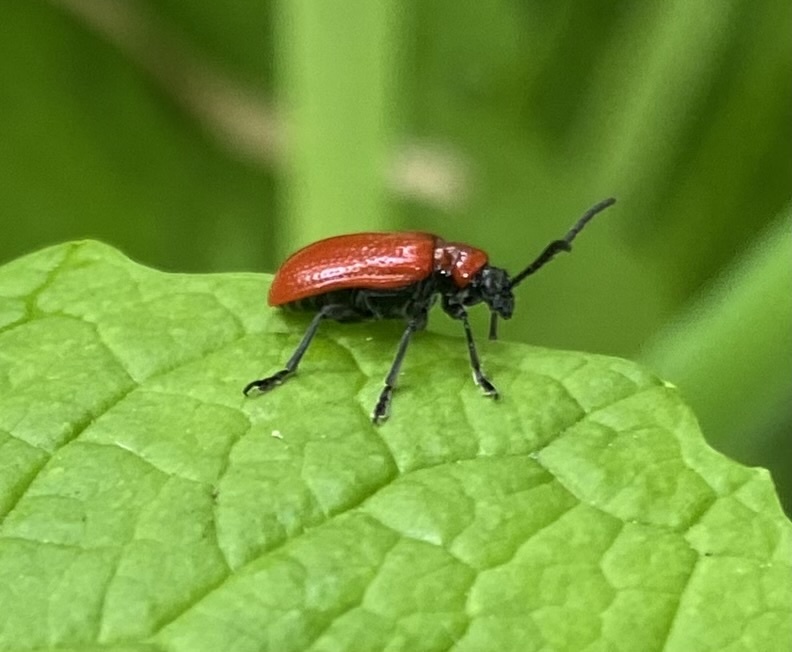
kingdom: Animalia
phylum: Arthropoda
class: Insecta
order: Coleoptera
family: Chrysomelidae
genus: Lilioceris
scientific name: Lilioceris lilii
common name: Lily beetle
